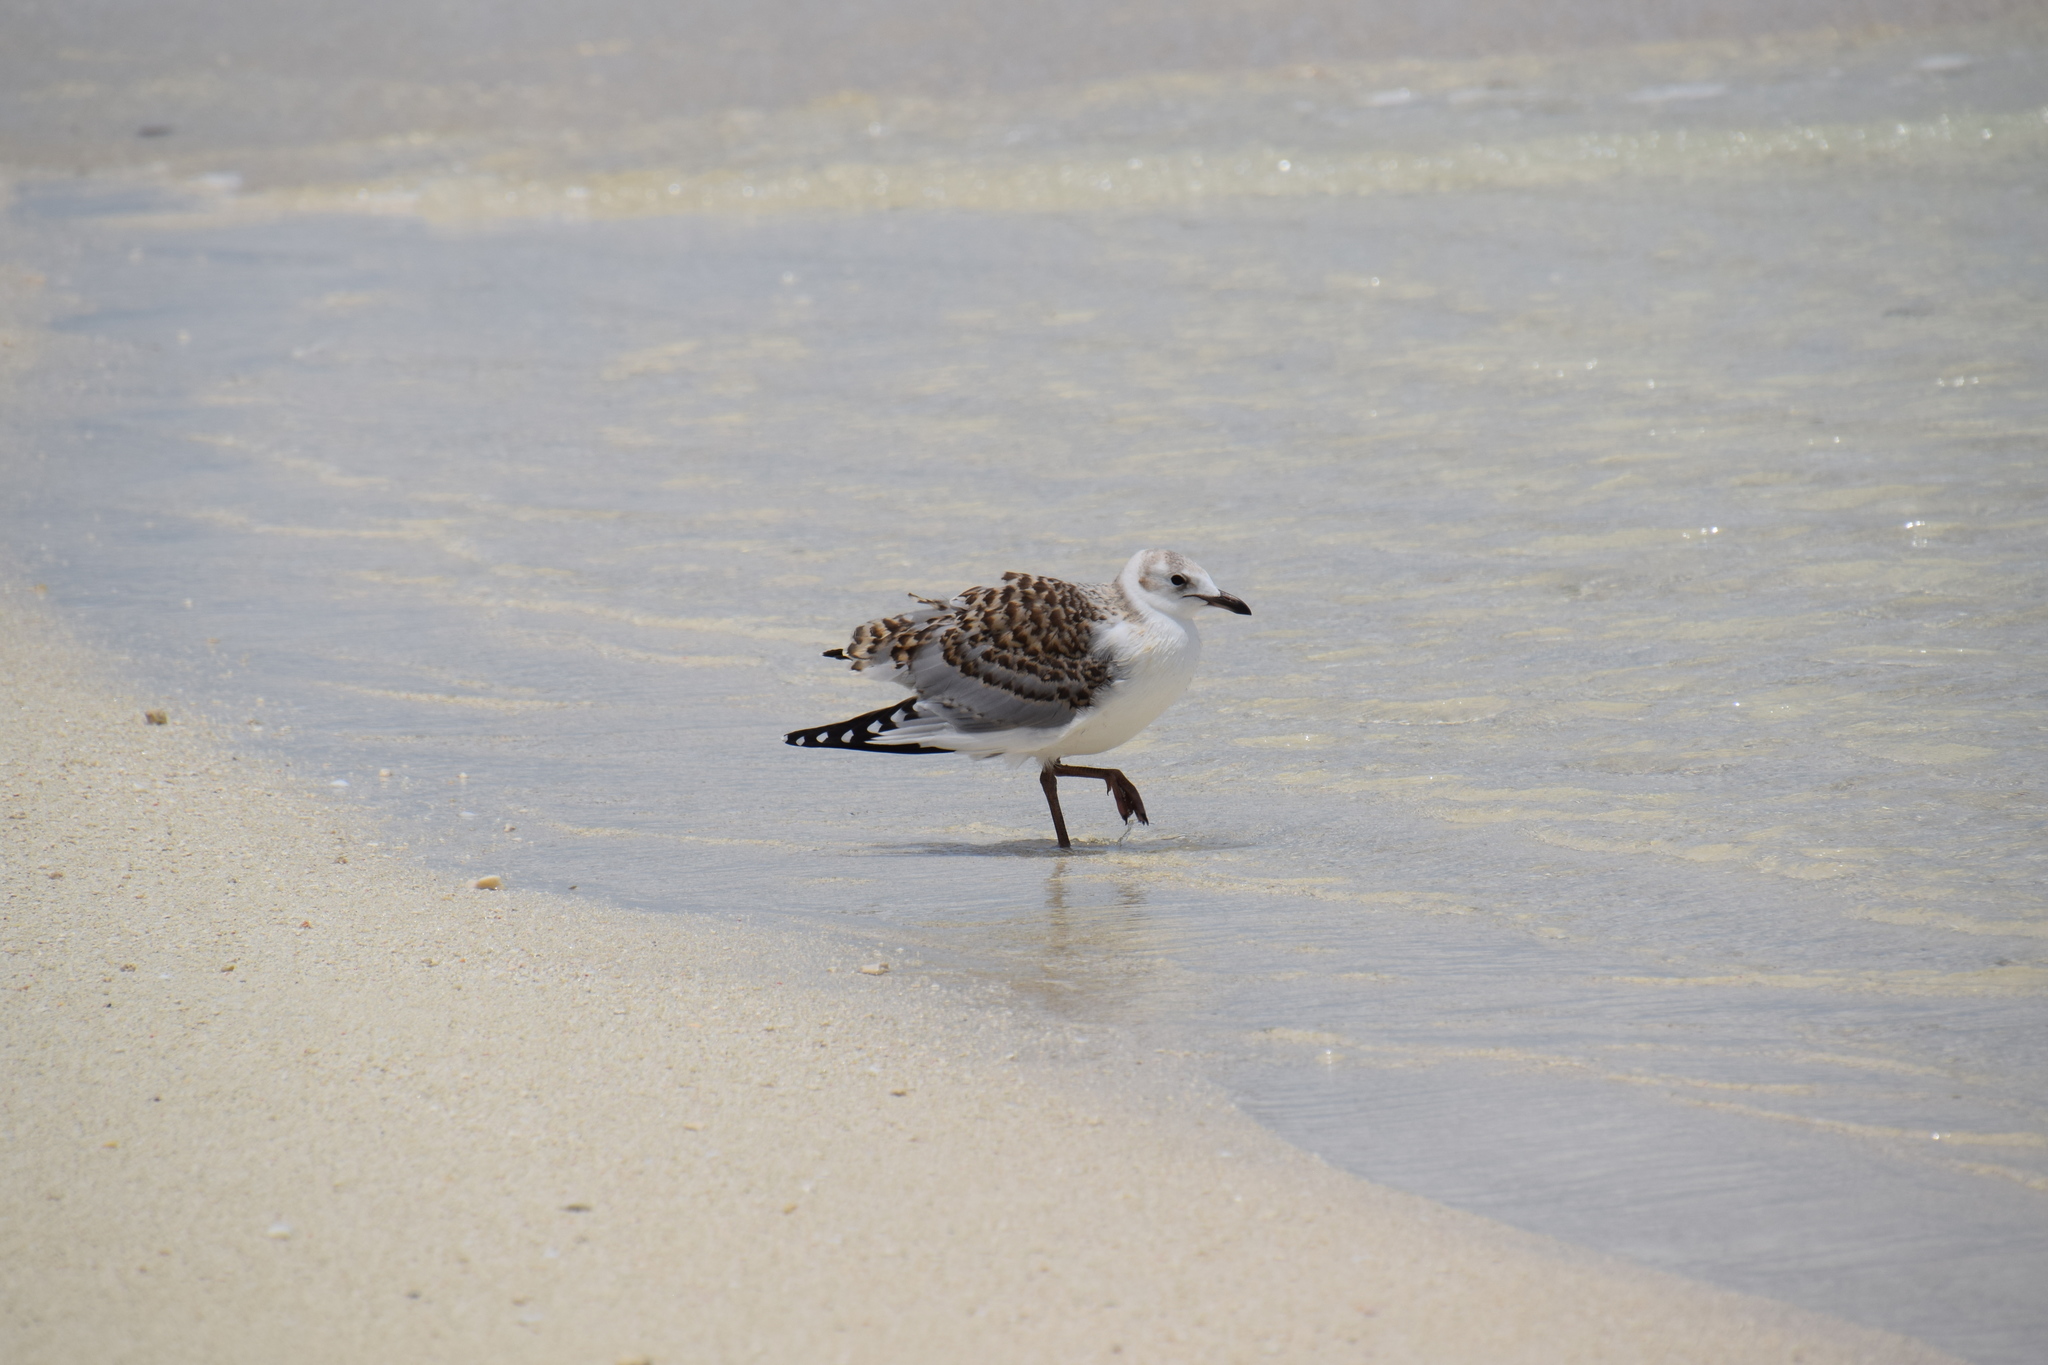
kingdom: Animalia
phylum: Chordata
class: Aves
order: Charadriiformes
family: Laridae
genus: Chroicocephalus
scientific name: Chroicocephalus novaehollandiae
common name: Silver gull
